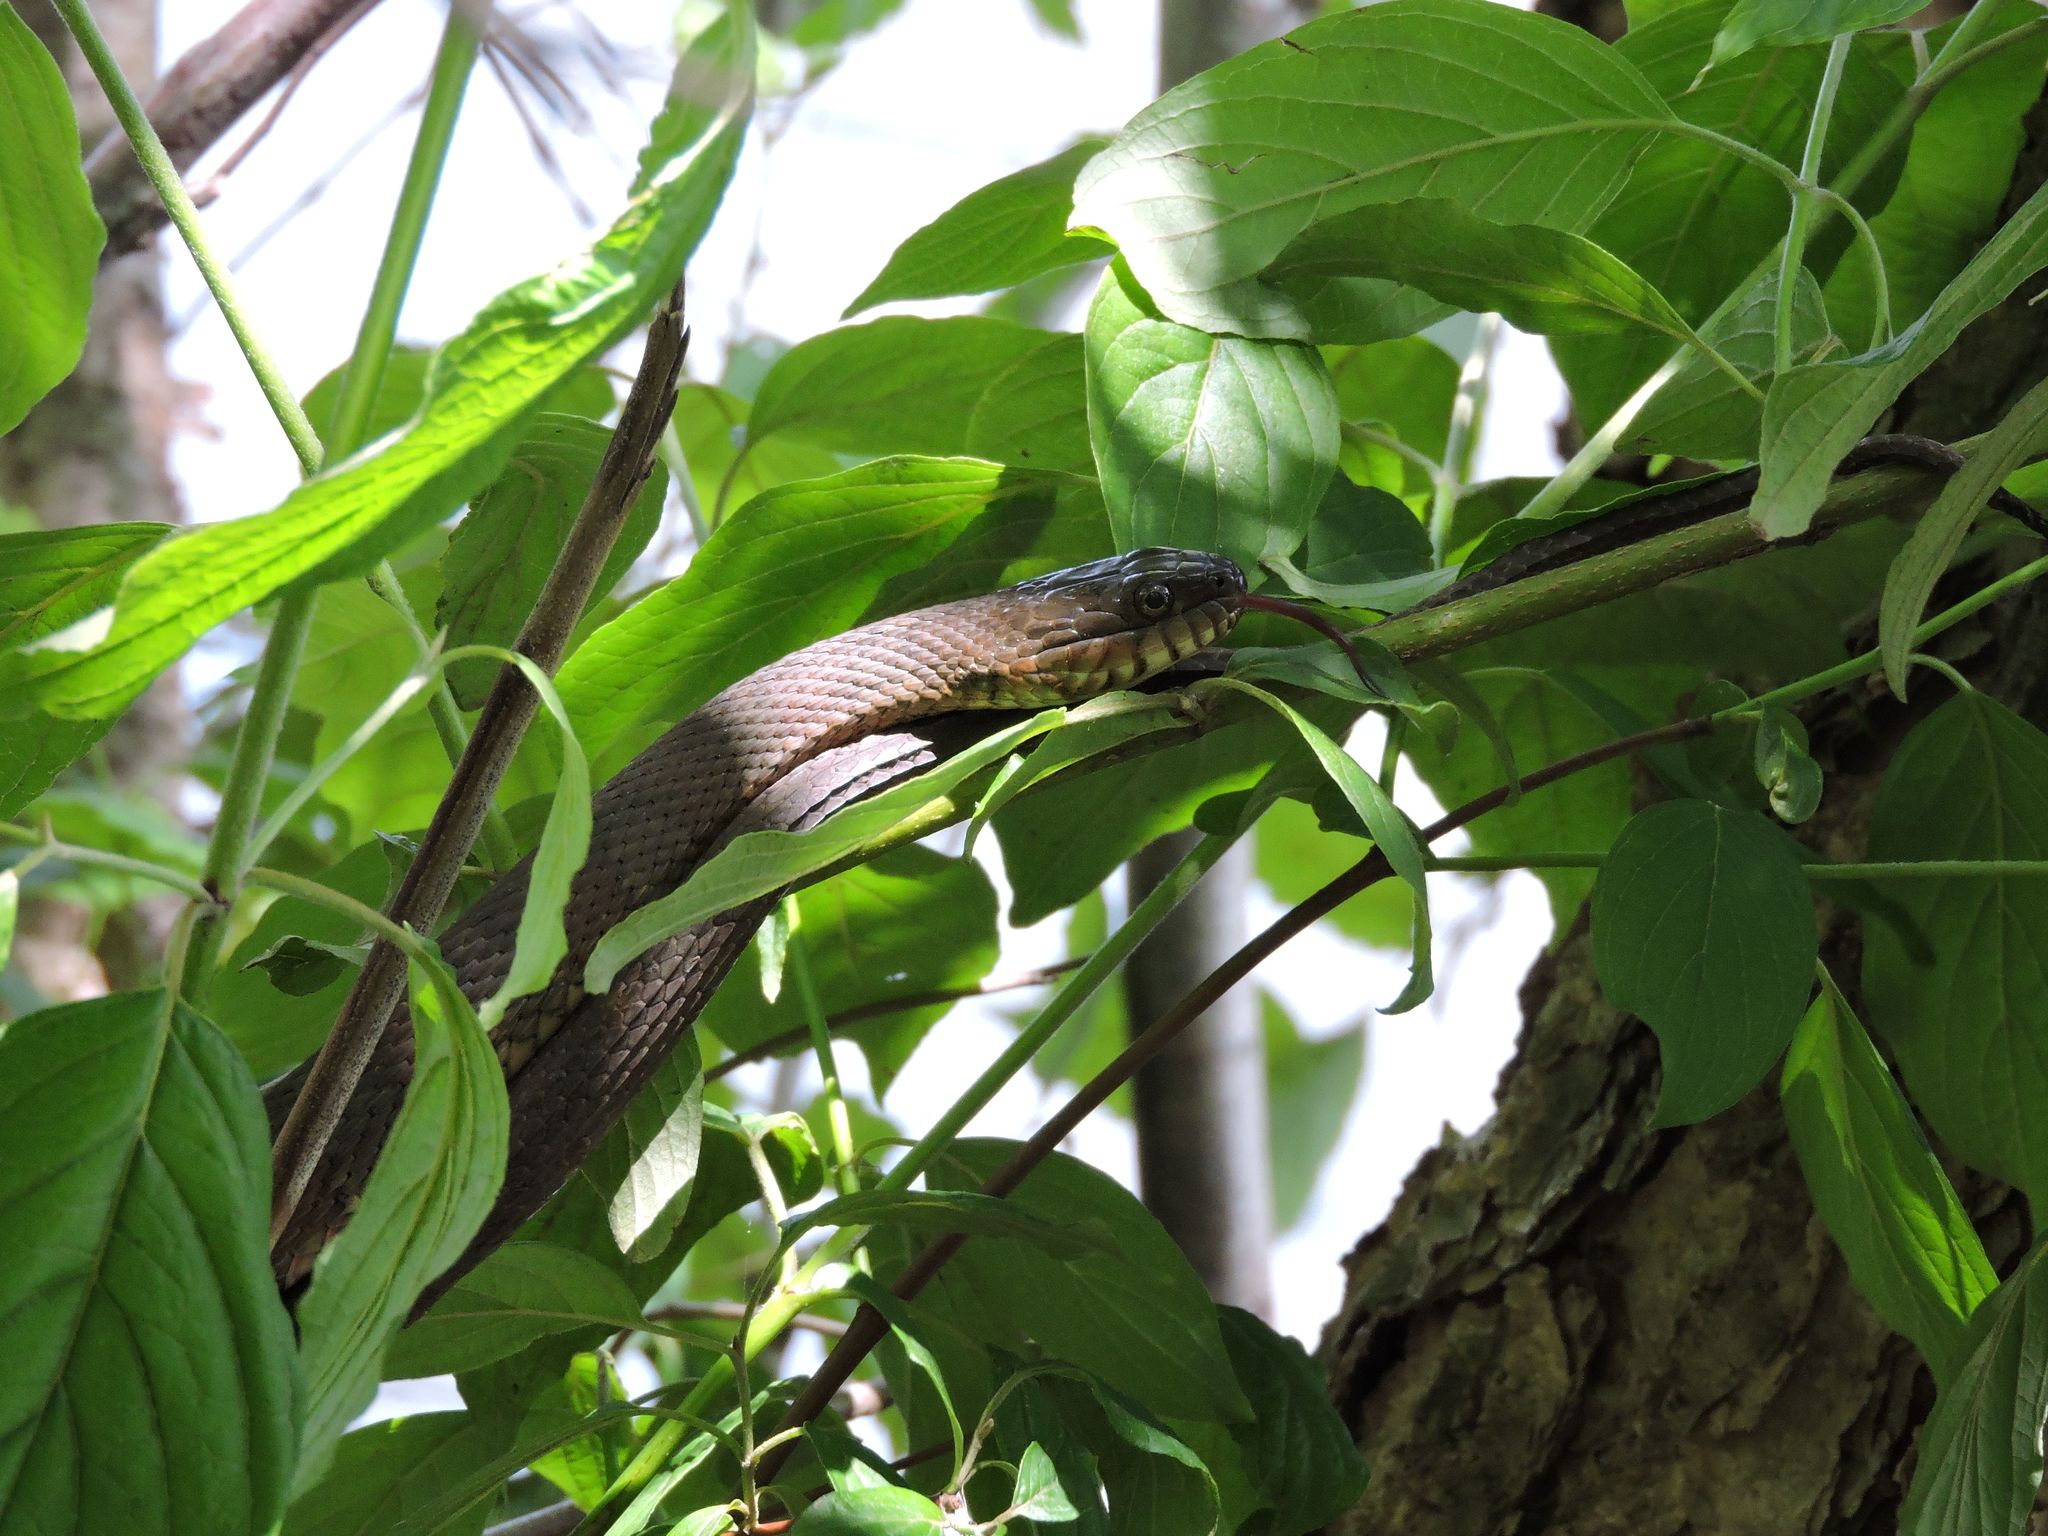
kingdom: Animalia
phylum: Chordata
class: Squamata
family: Colubridae
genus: Nerodia
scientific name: Nerodia sipedon
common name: Northern water snake
